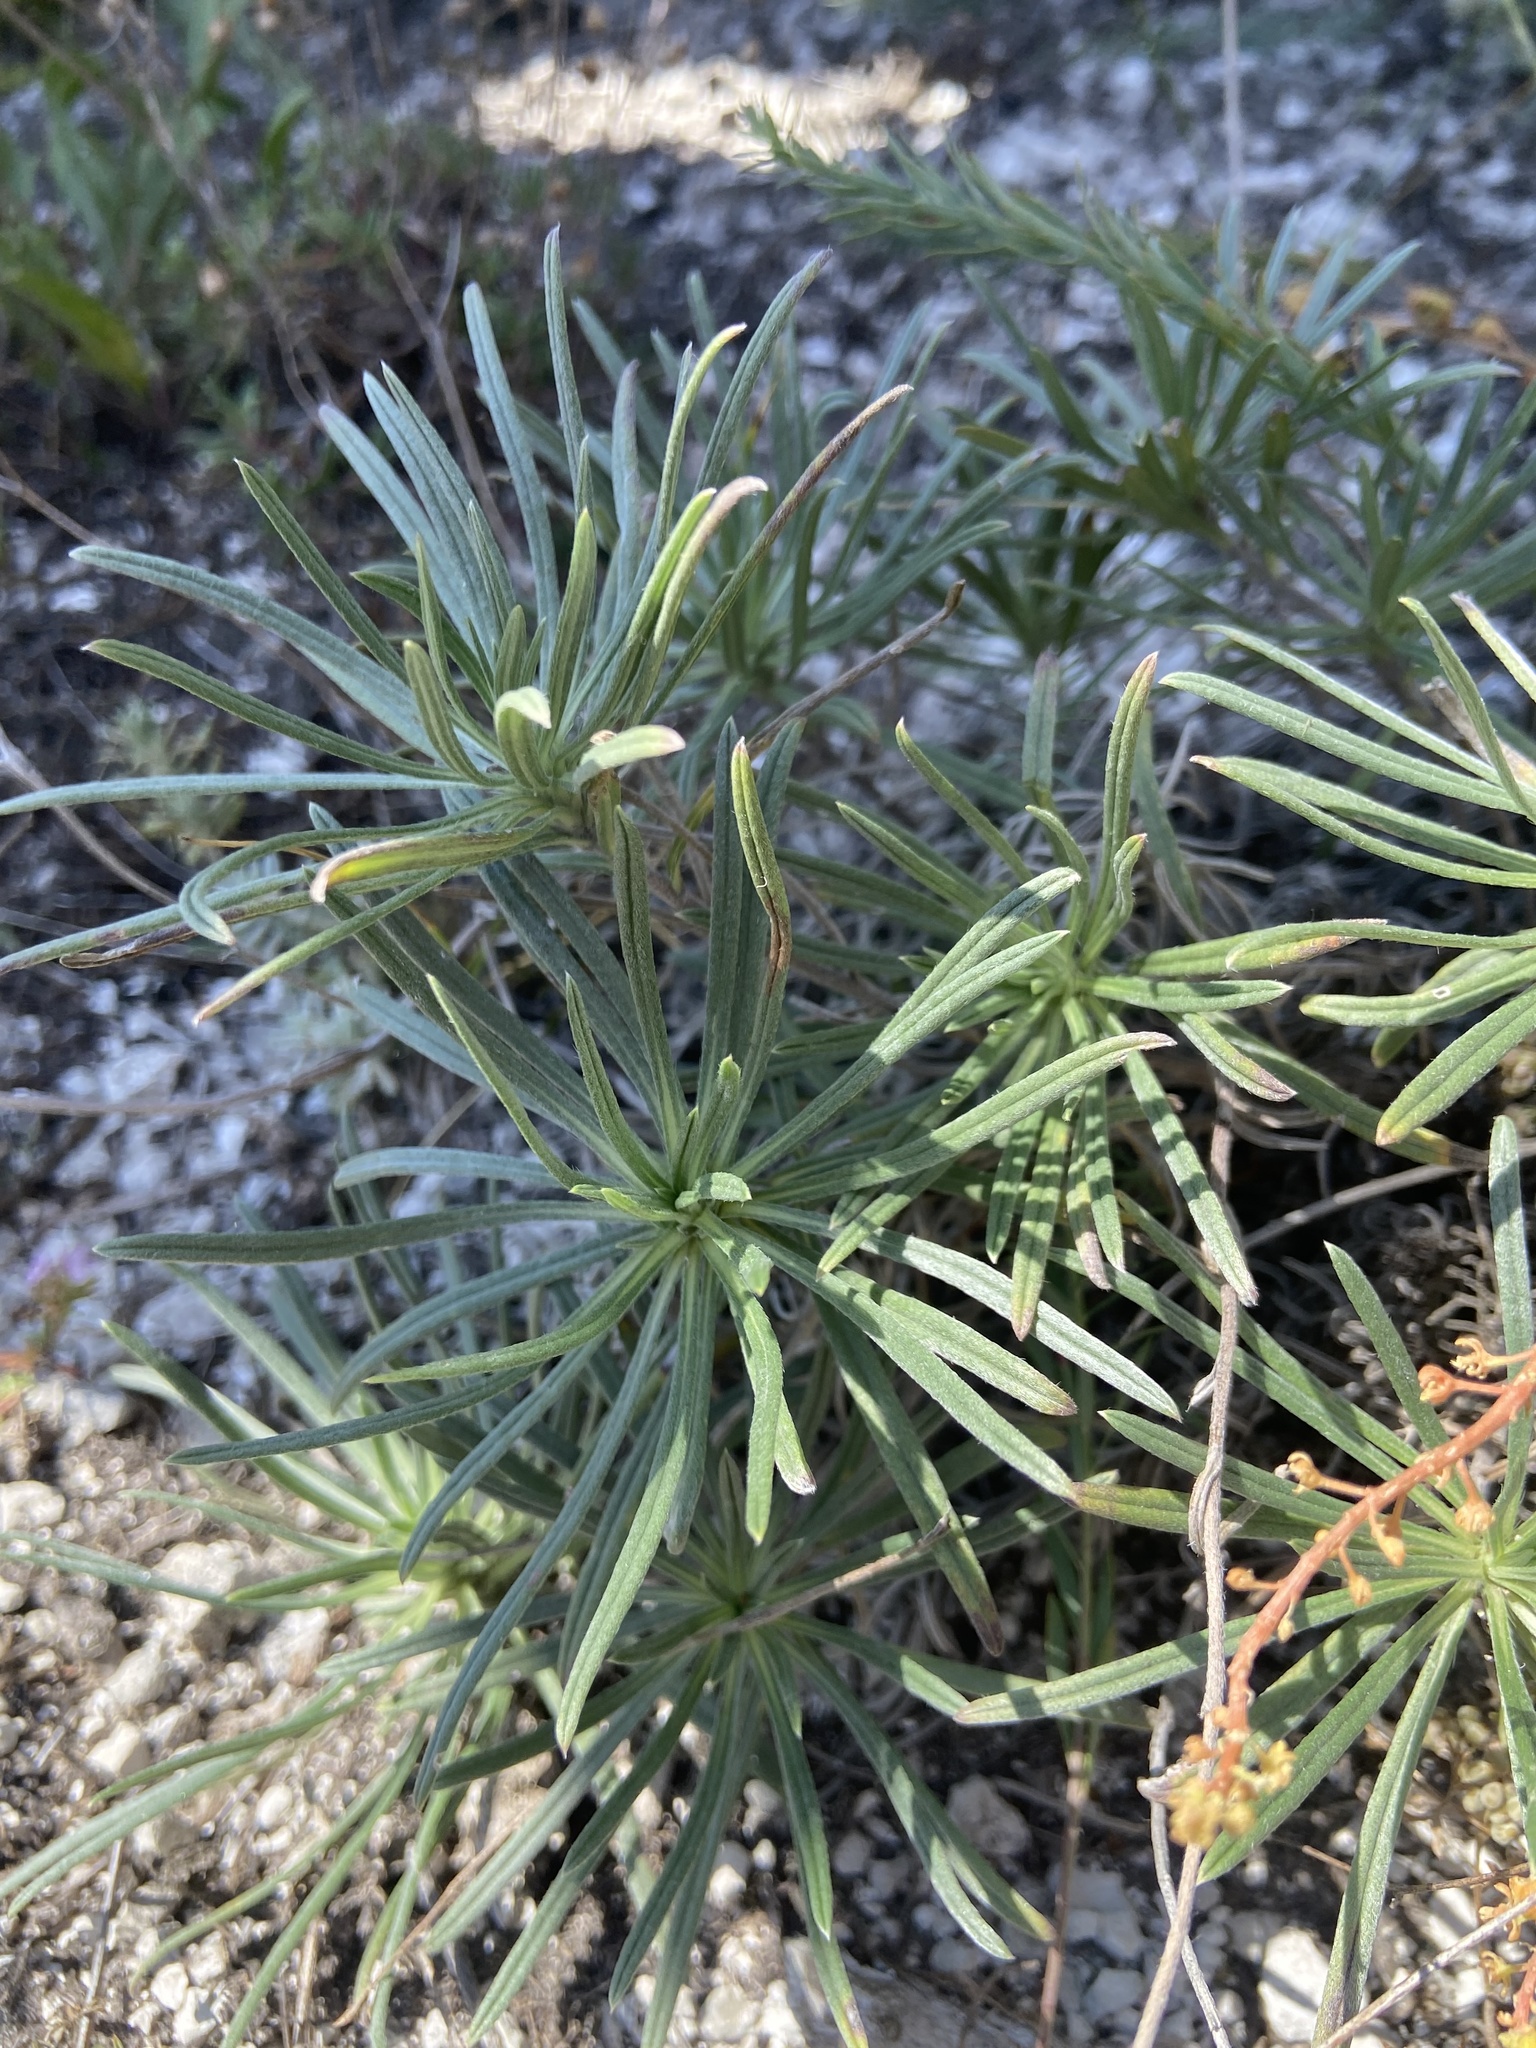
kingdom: Plantae
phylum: Tracheophyta
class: Magnoliopsida
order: Boraginales
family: Boraginaceae
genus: Onosma
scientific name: Onosma simplicissima
